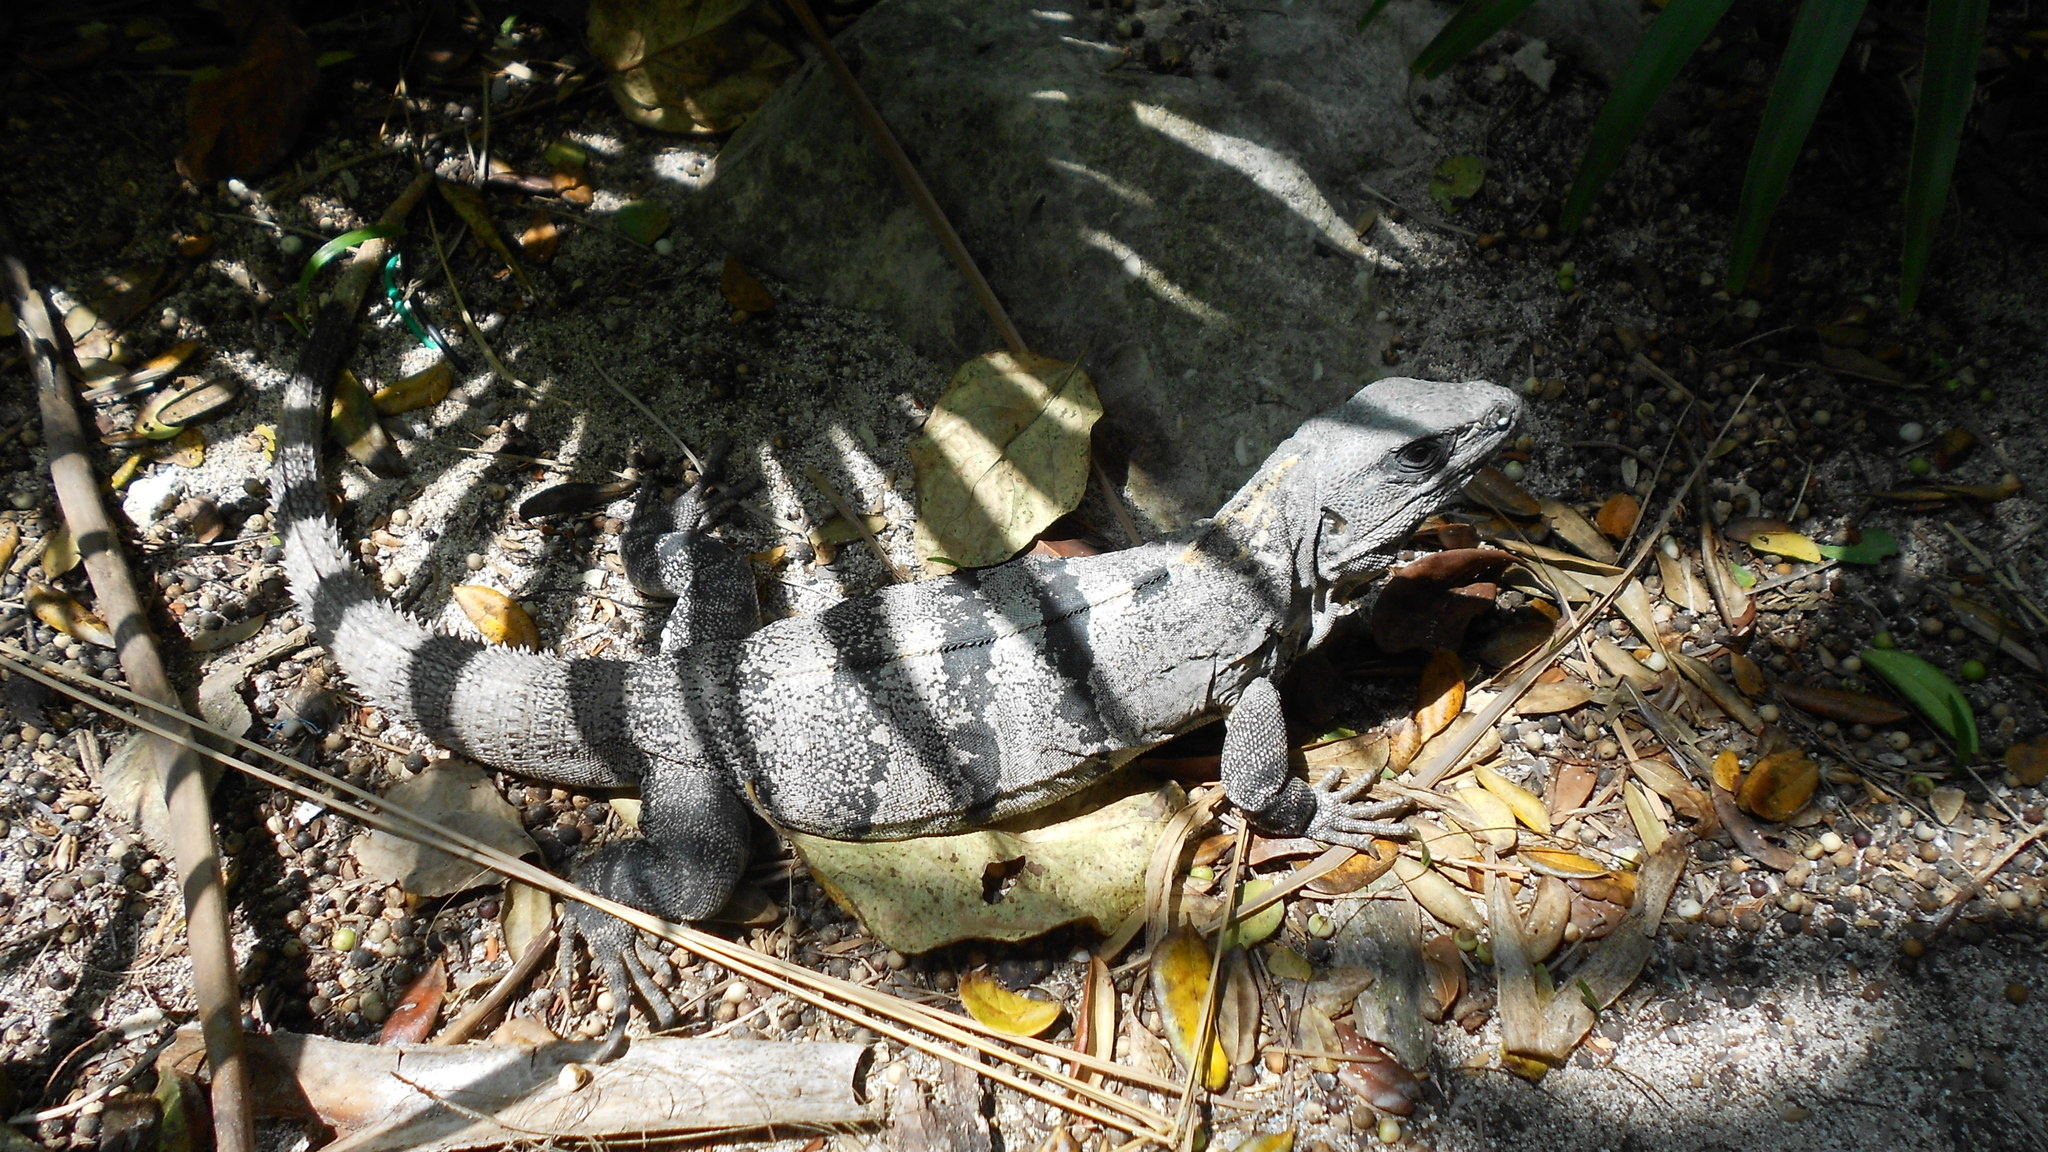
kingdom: Animalia
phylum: Chordata
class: Squamata
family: Iguanidae
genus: Ctenosaura
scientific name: Ctenosaura similis
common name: Black spiny-tailed iguana
